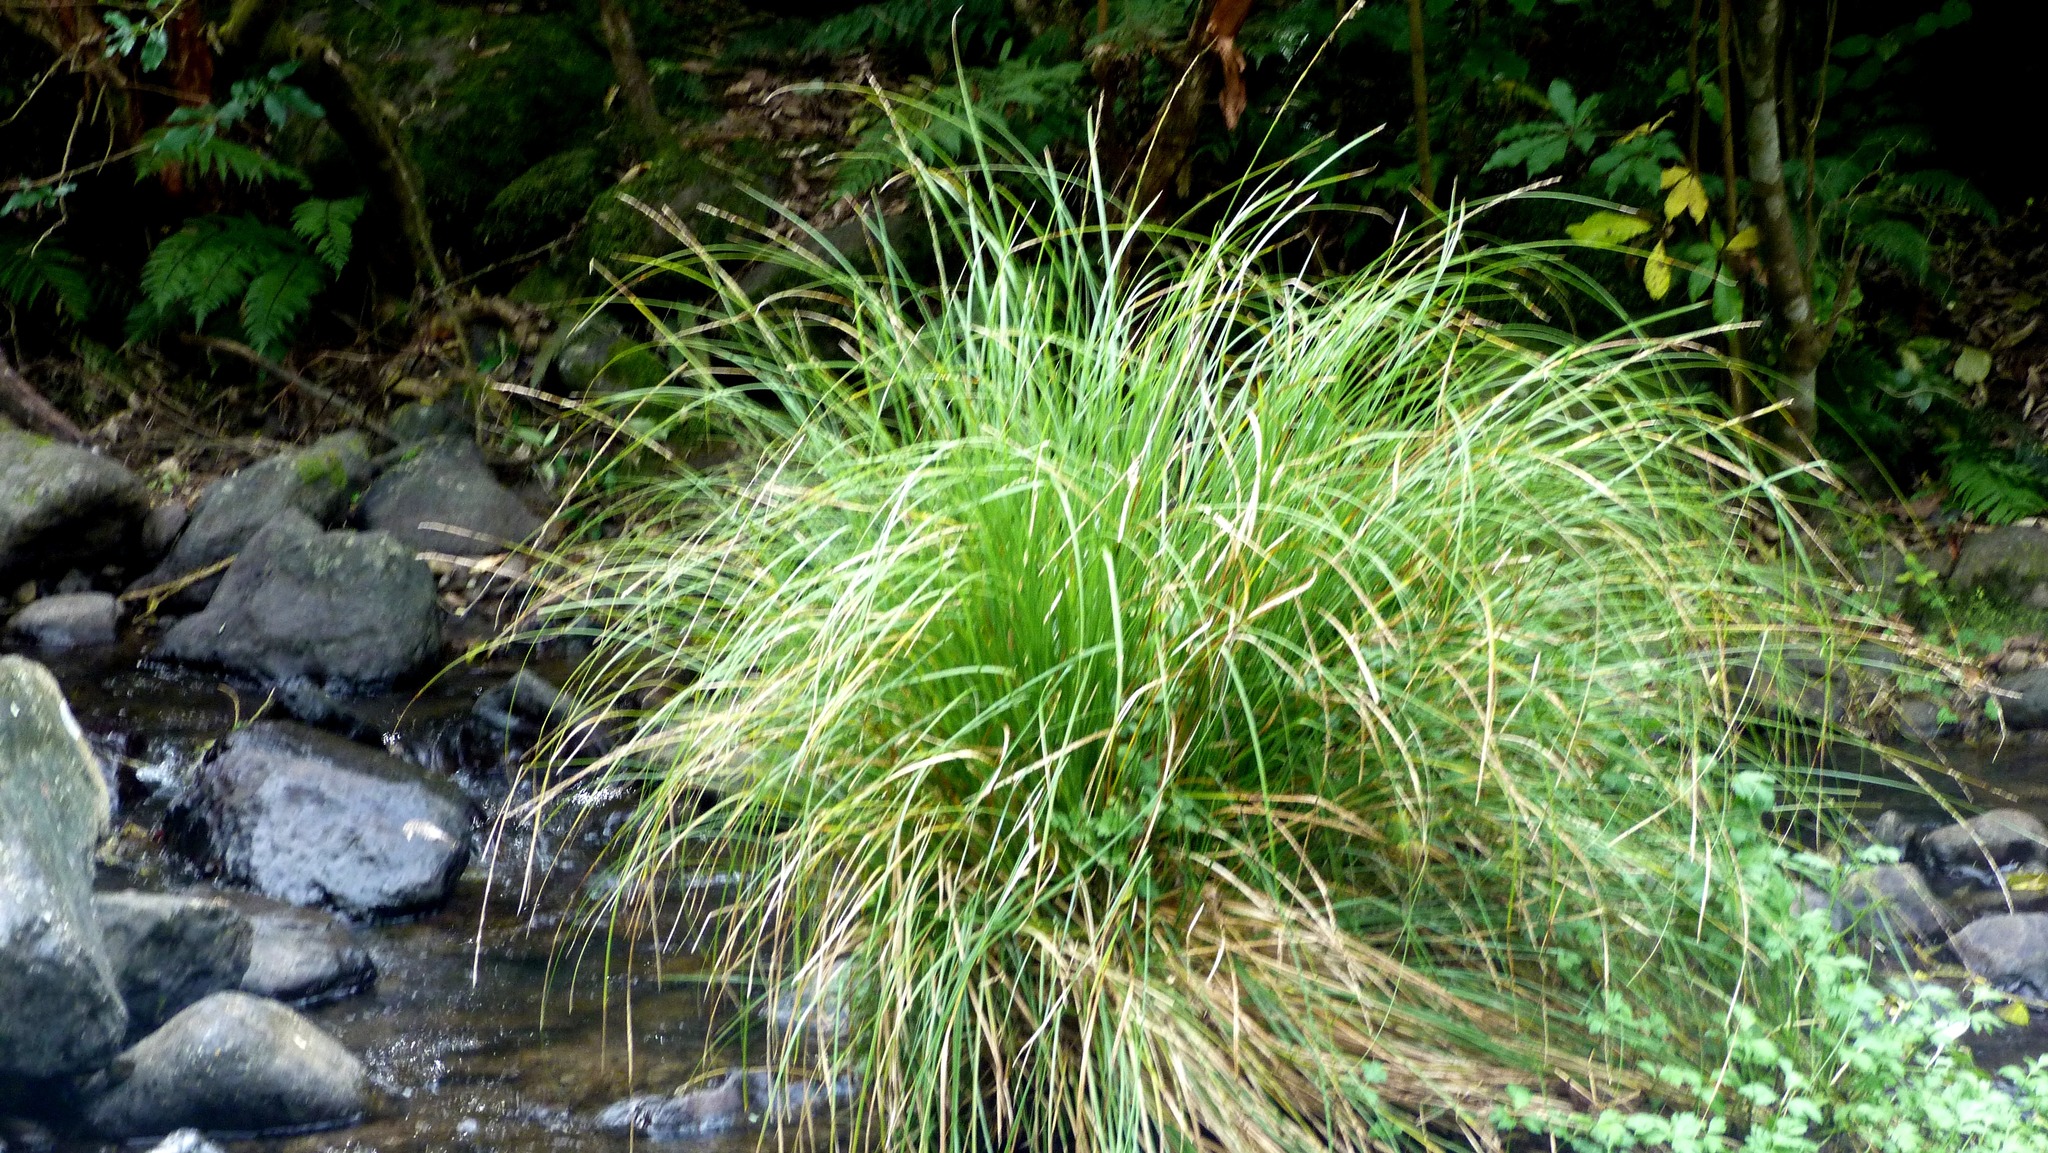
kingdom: Plantae
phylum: Tracheophyta
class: Liliopsida
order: Poales
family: Cyperaceae
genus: Carex
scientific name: Carex virgata
